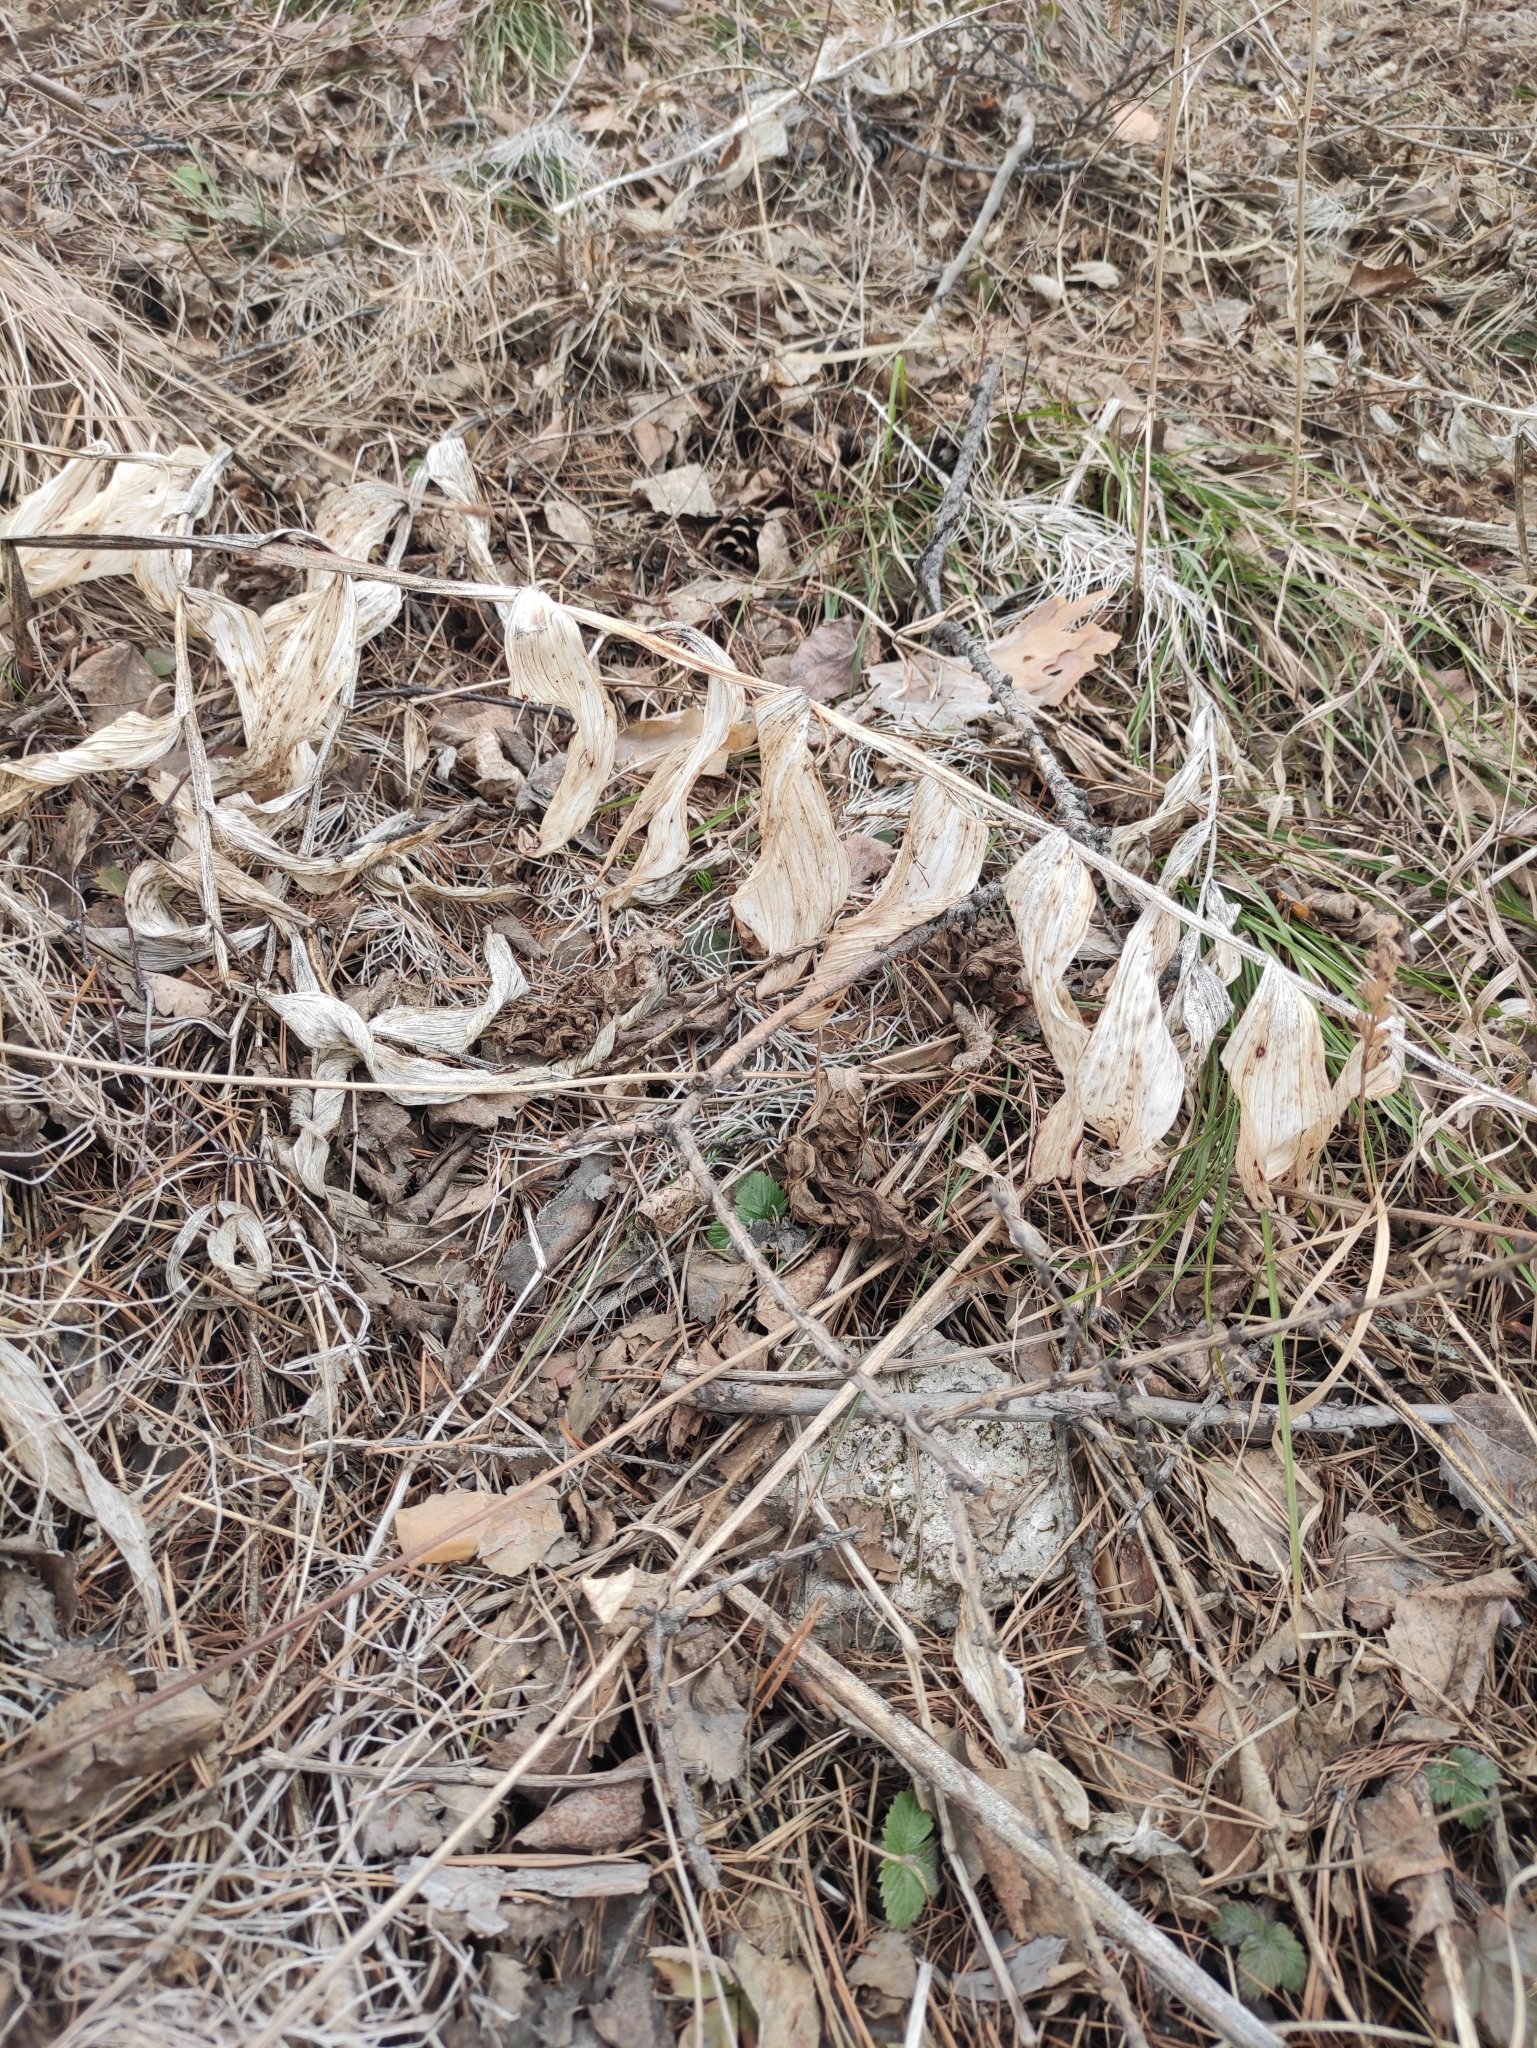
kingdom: Plantae
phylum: Tracheophyta
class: Liliopsida
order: Asparagales
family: Asparagaceae
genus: Polygonatum
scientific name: Polygonatum odoratum
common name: Angular solomon's-seal
